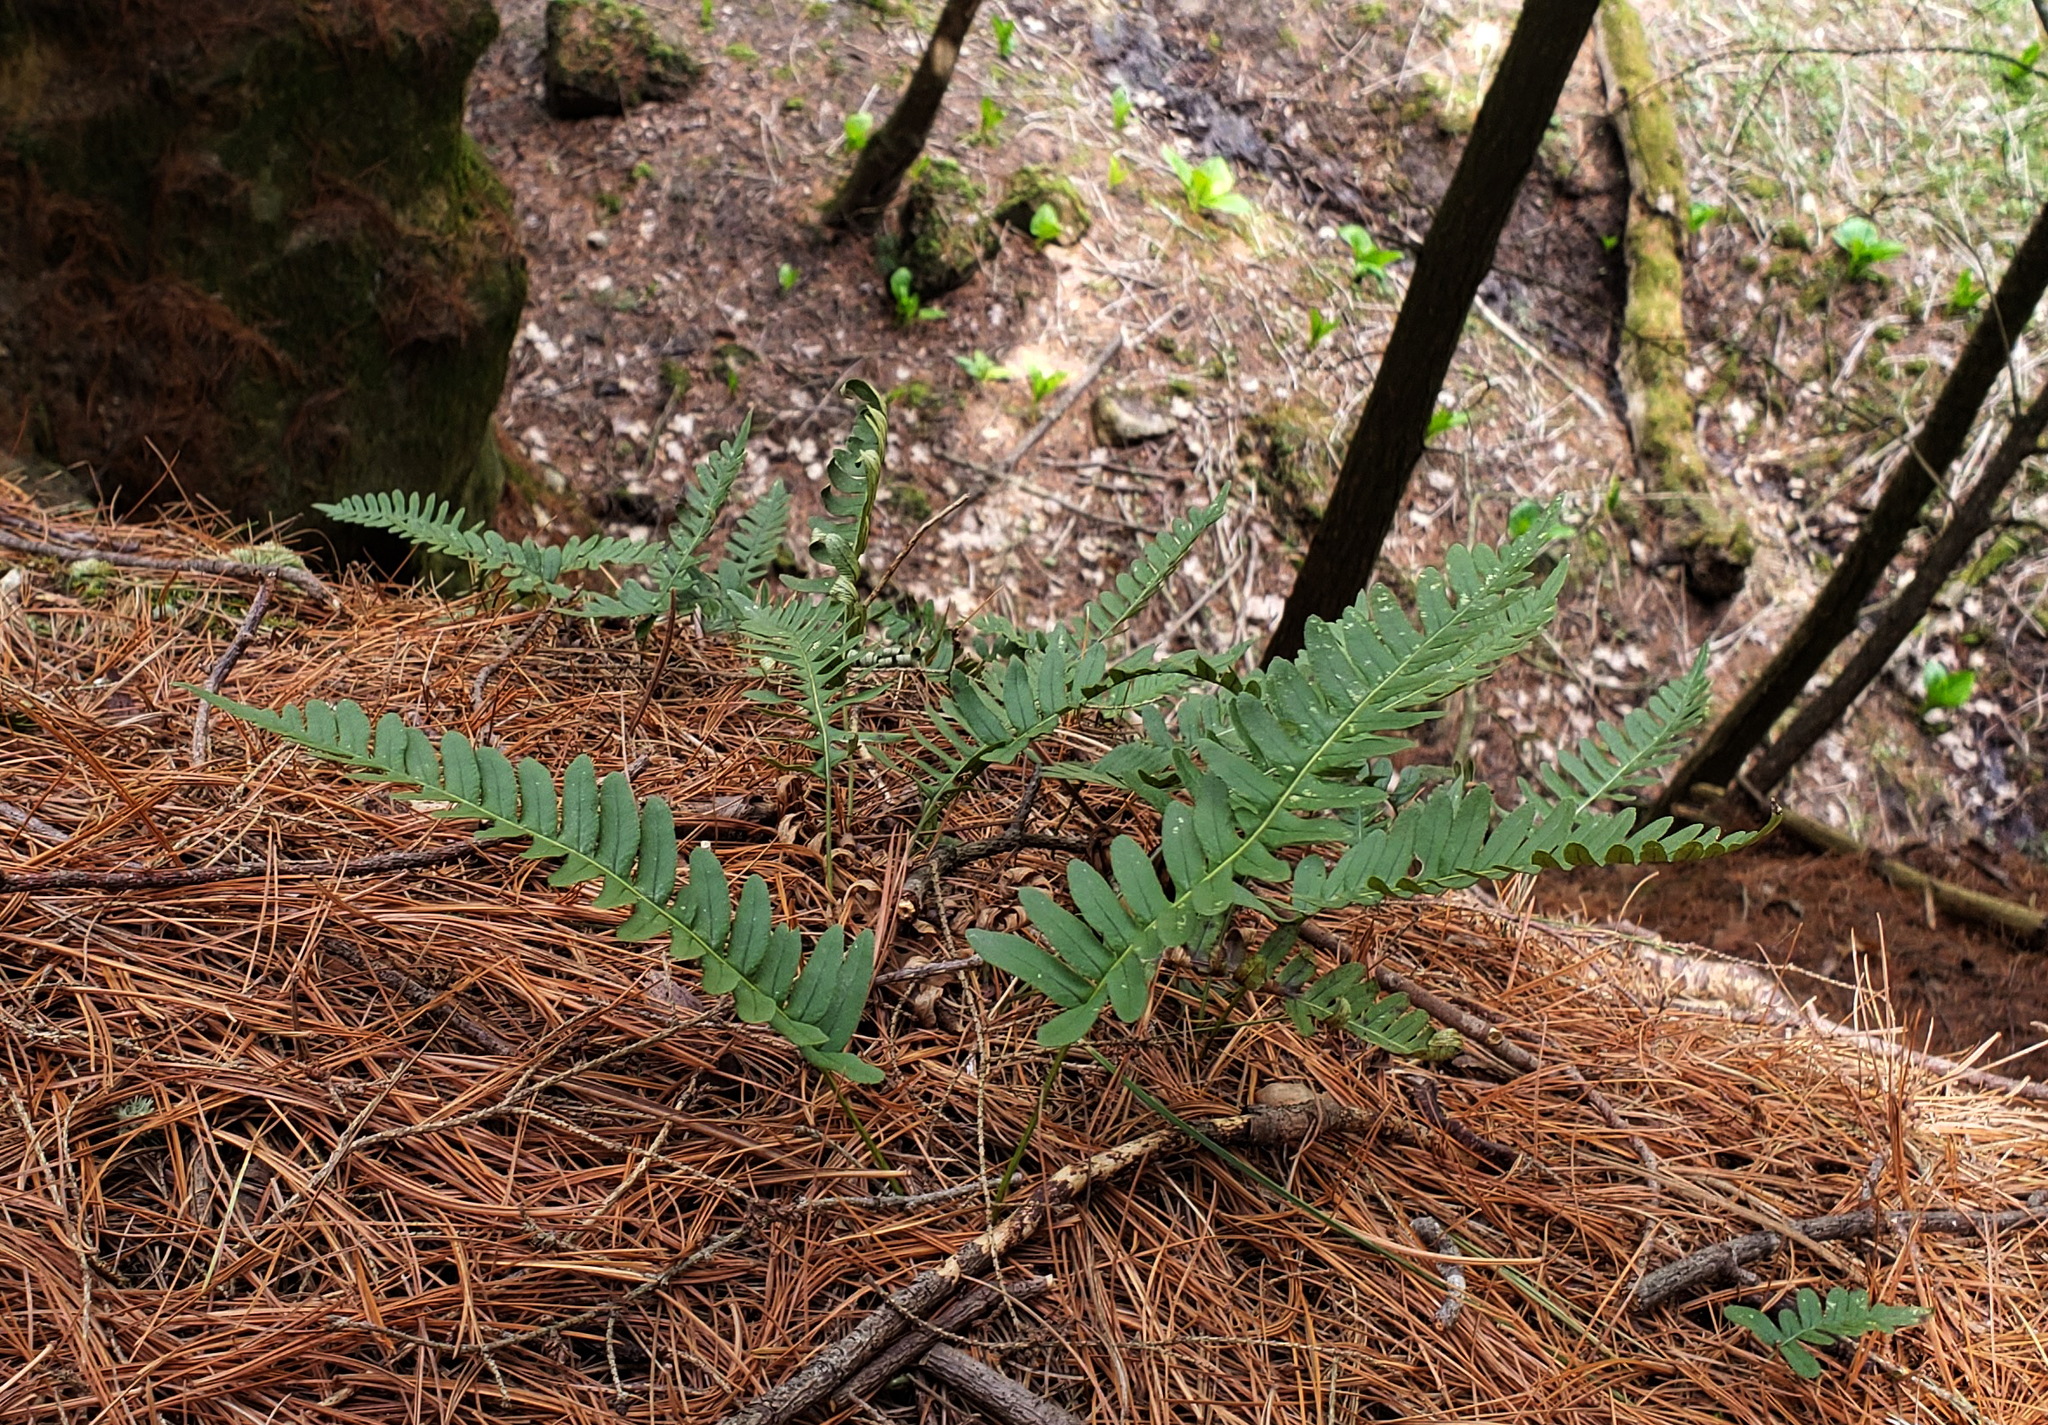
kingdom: Plantae
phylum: Tracheophyta
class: Polypodiopsida
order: Polypodiales
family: Polypodiaceae
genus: Polypodium
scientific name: Polypodium virginianum
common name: American wall fern
